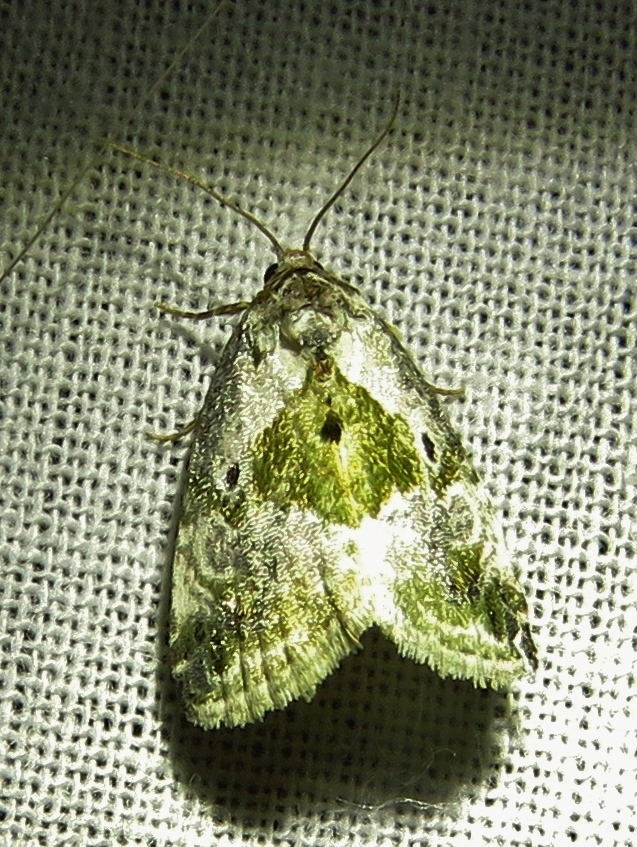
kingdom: Animalia
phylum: Arthropoda
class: Insecta
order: Lepidoptera
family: Noctuidae
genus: Maliattha
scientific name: Maliattha synochitis
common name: Black-dotted glyph
